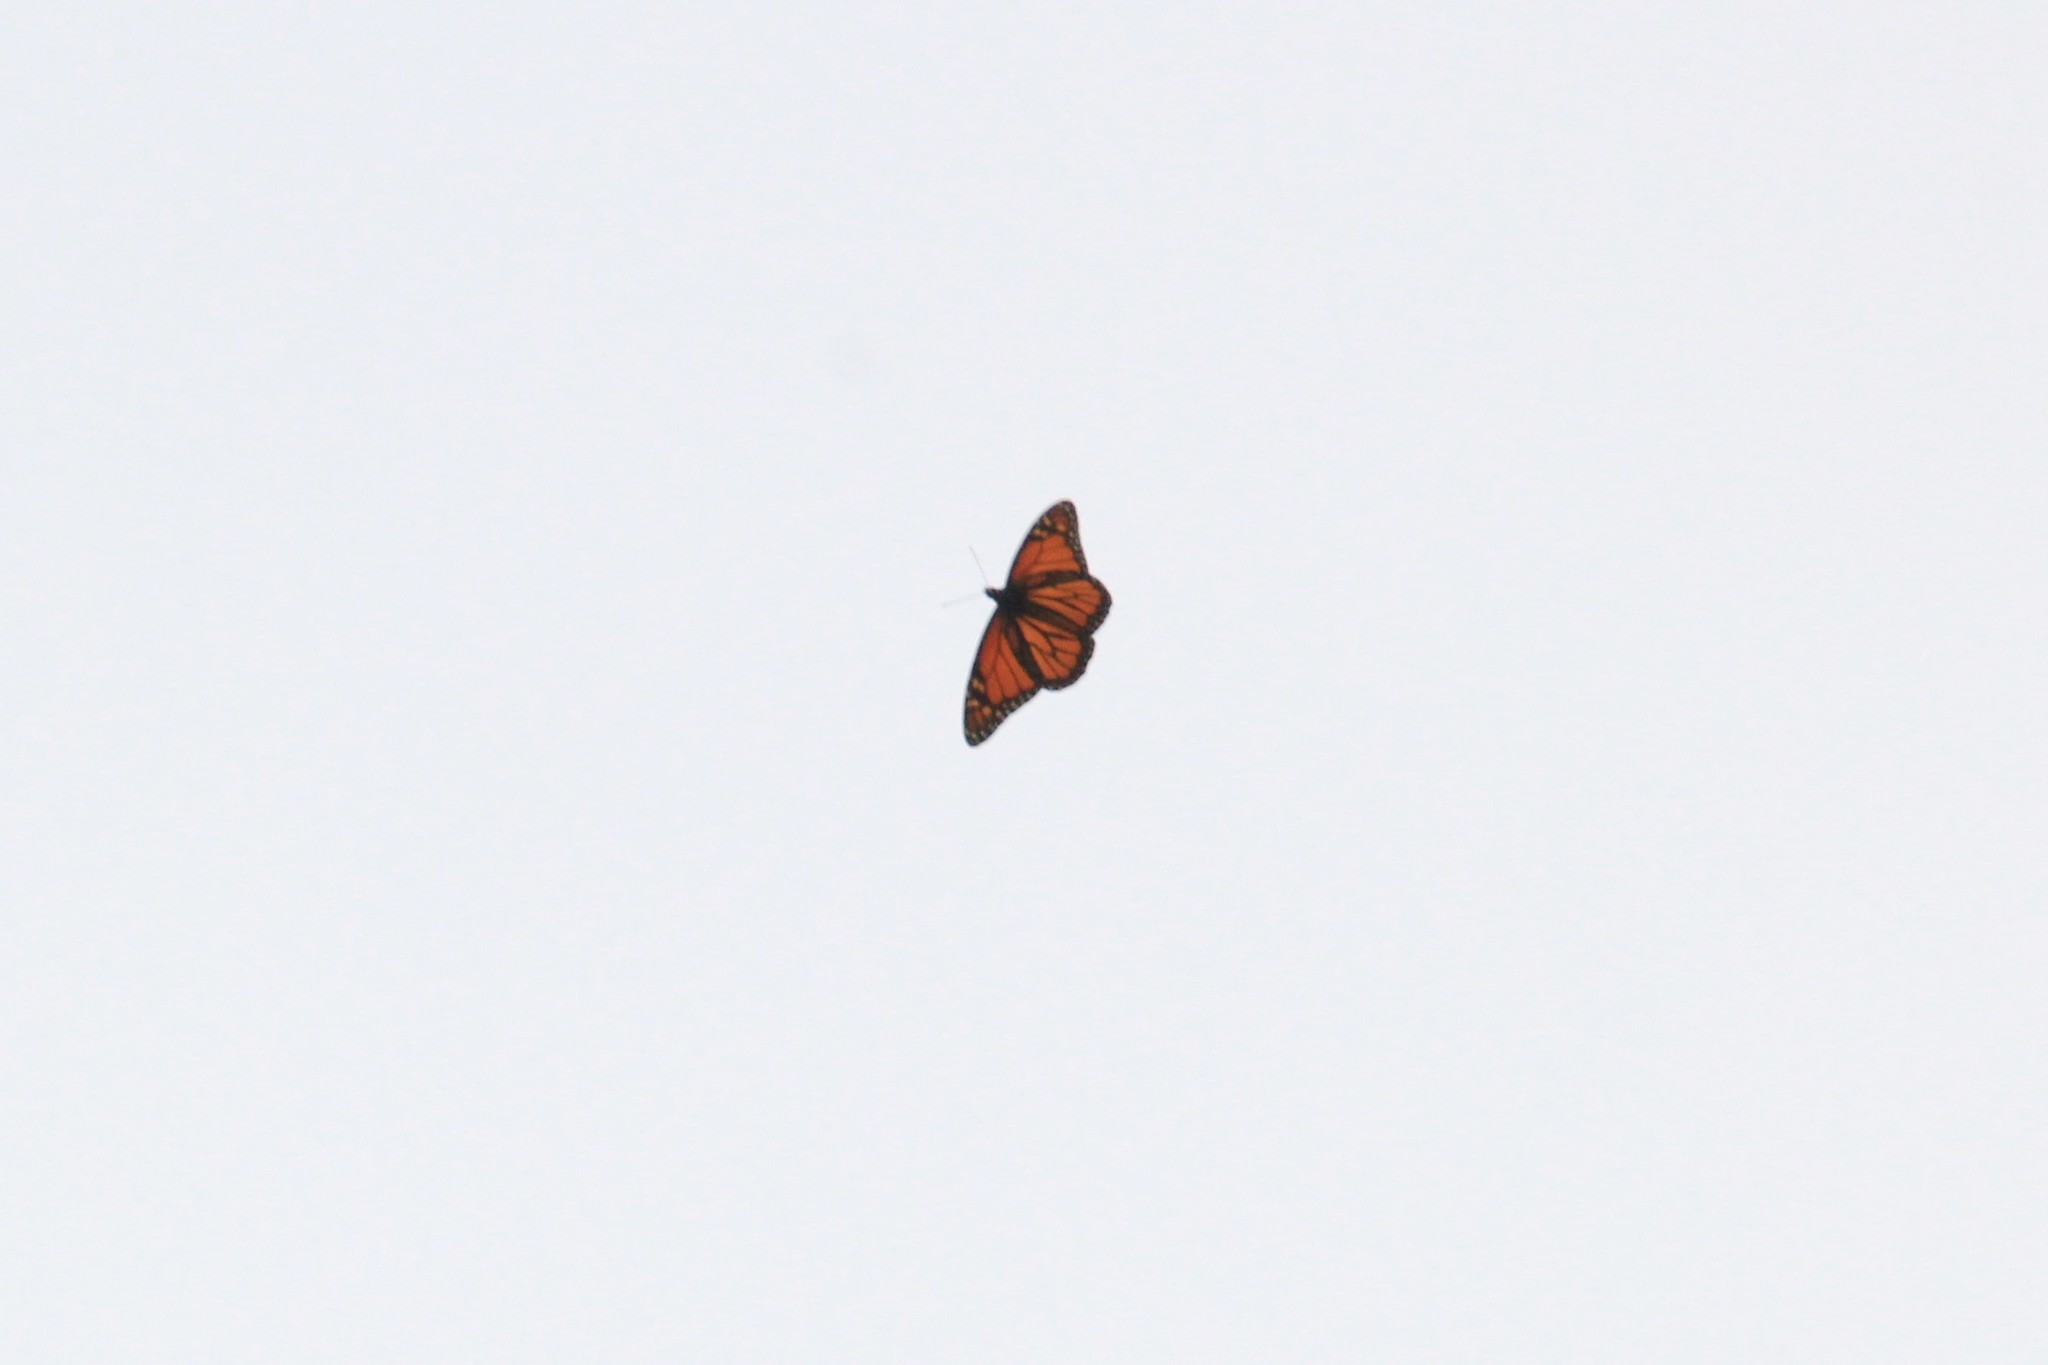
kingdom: Animalia
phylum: Arthropoda
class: Insecta
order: Lepidoptera
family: Nymphalidae
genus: Danaus
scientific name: Danaus plexippus
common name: Monarch
